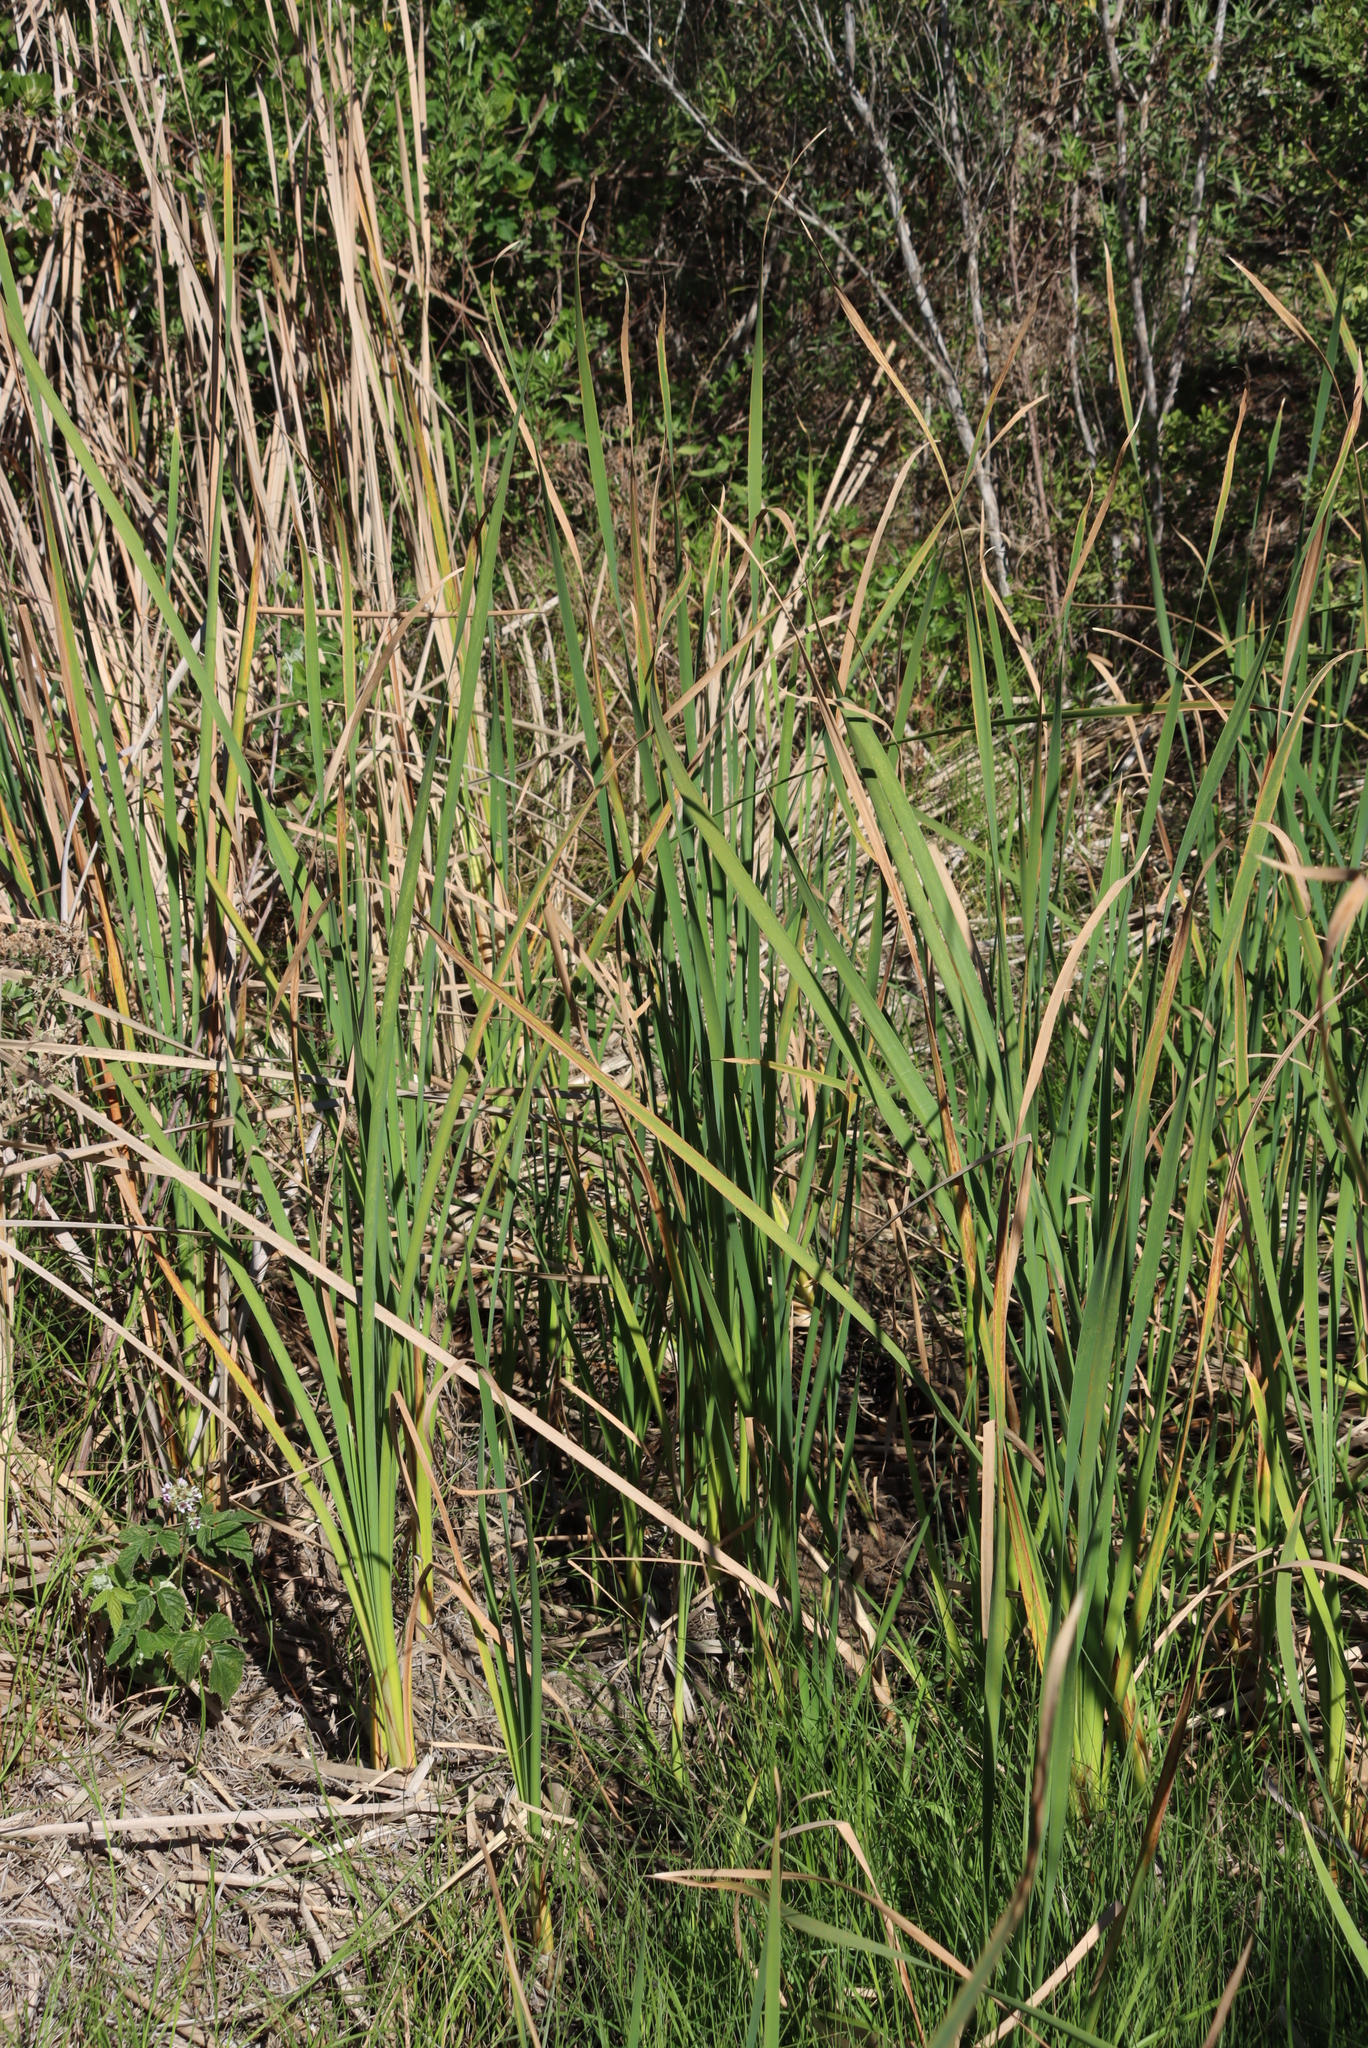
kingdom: Plantae
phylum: Tracheophyta
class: Liliopsida
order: Poales
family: Typhaceae
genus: Typha
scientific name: Typha capensis
